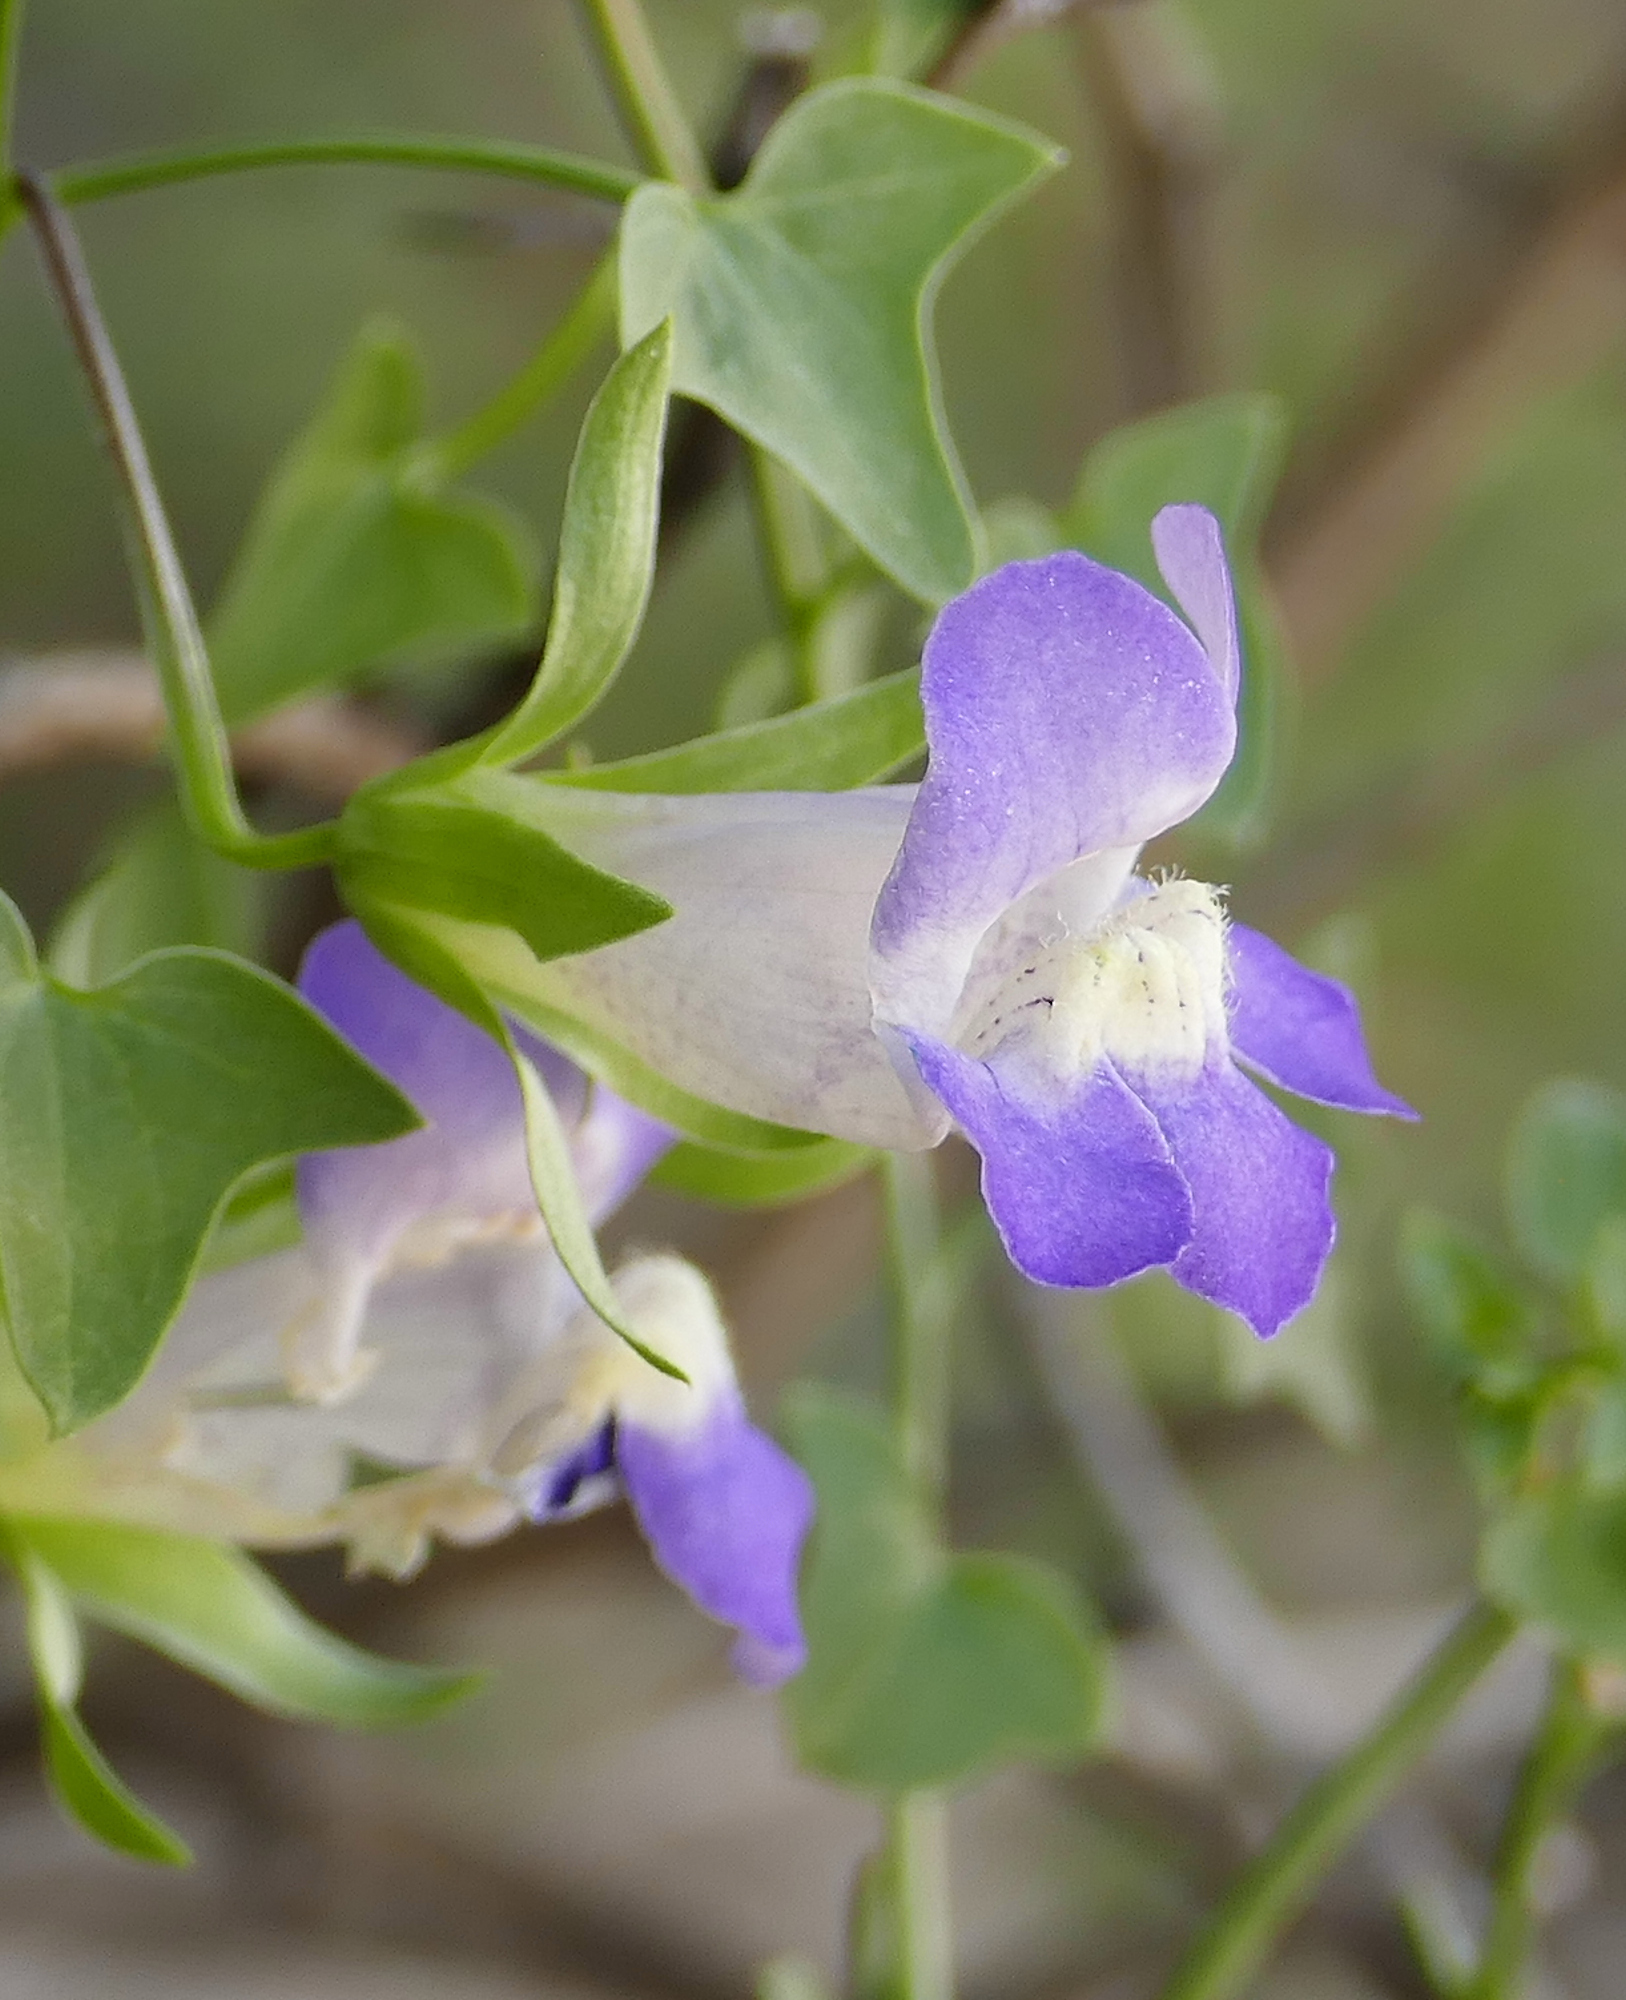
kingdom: Plantae
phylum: Tracheophyta
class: Magnoliopsida
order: Lamiales
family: Plantaginaceae
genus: Maurandella
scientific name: Maurandella antirrhiniflora
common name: Violet twining-snapdragon
